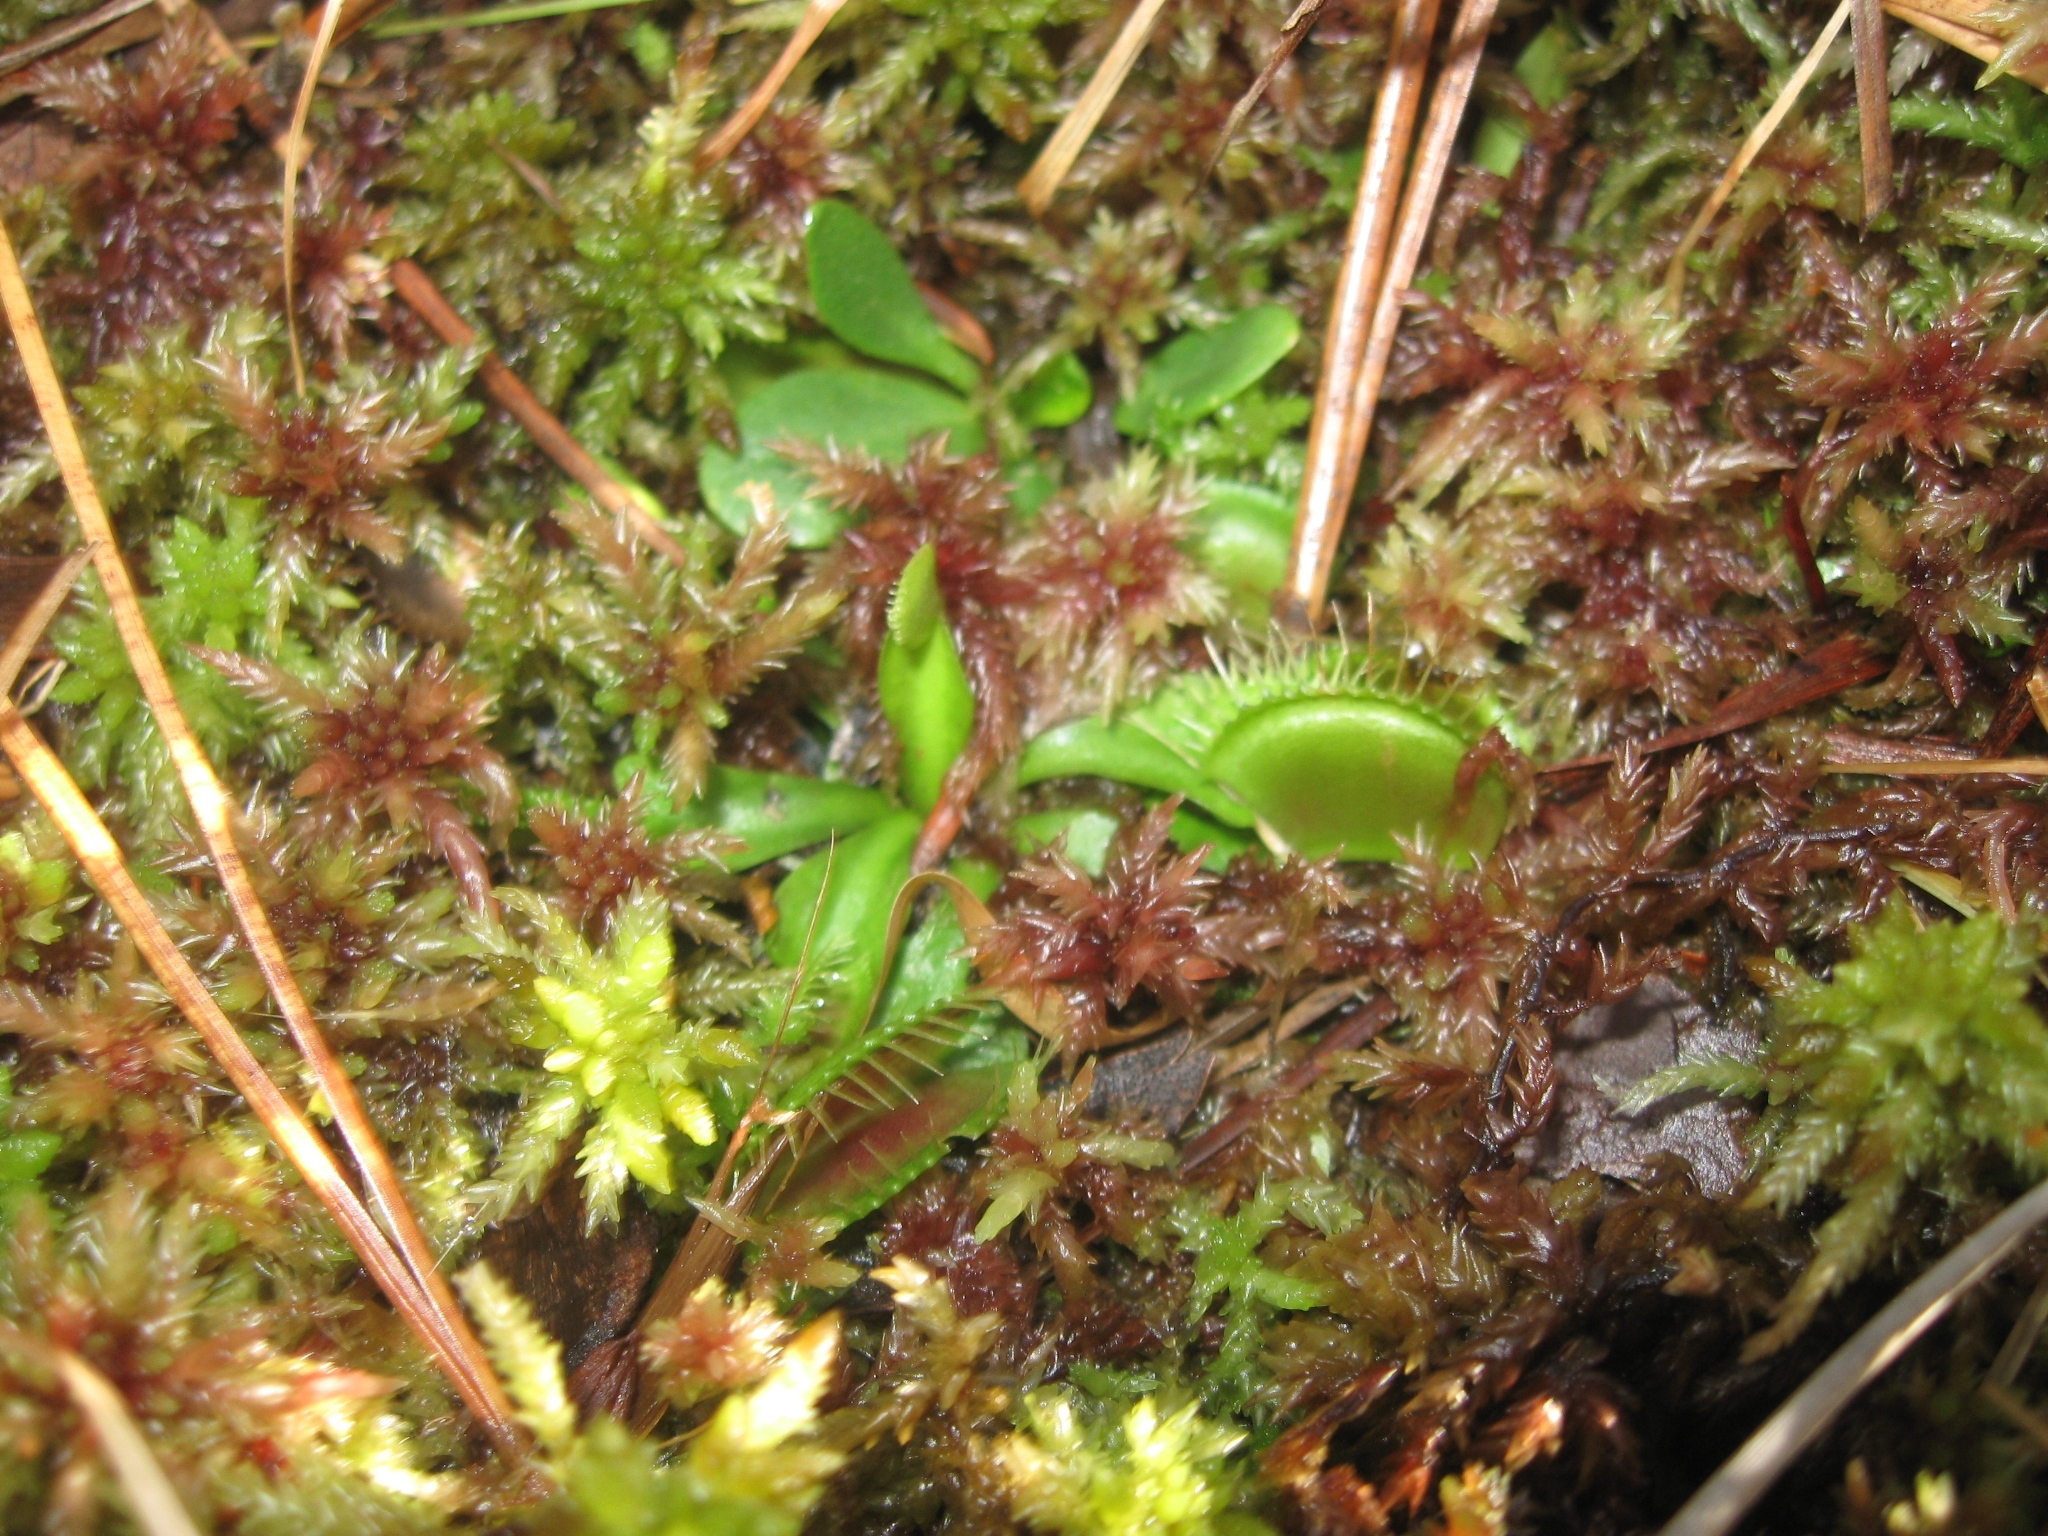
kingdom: Plantae
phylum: Tracheophyta
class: Magnoliopsida
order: Caryophyllales
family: Droseraceae
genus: Dionaea
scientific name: Dionaea muscipula
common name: Venus flytrap
